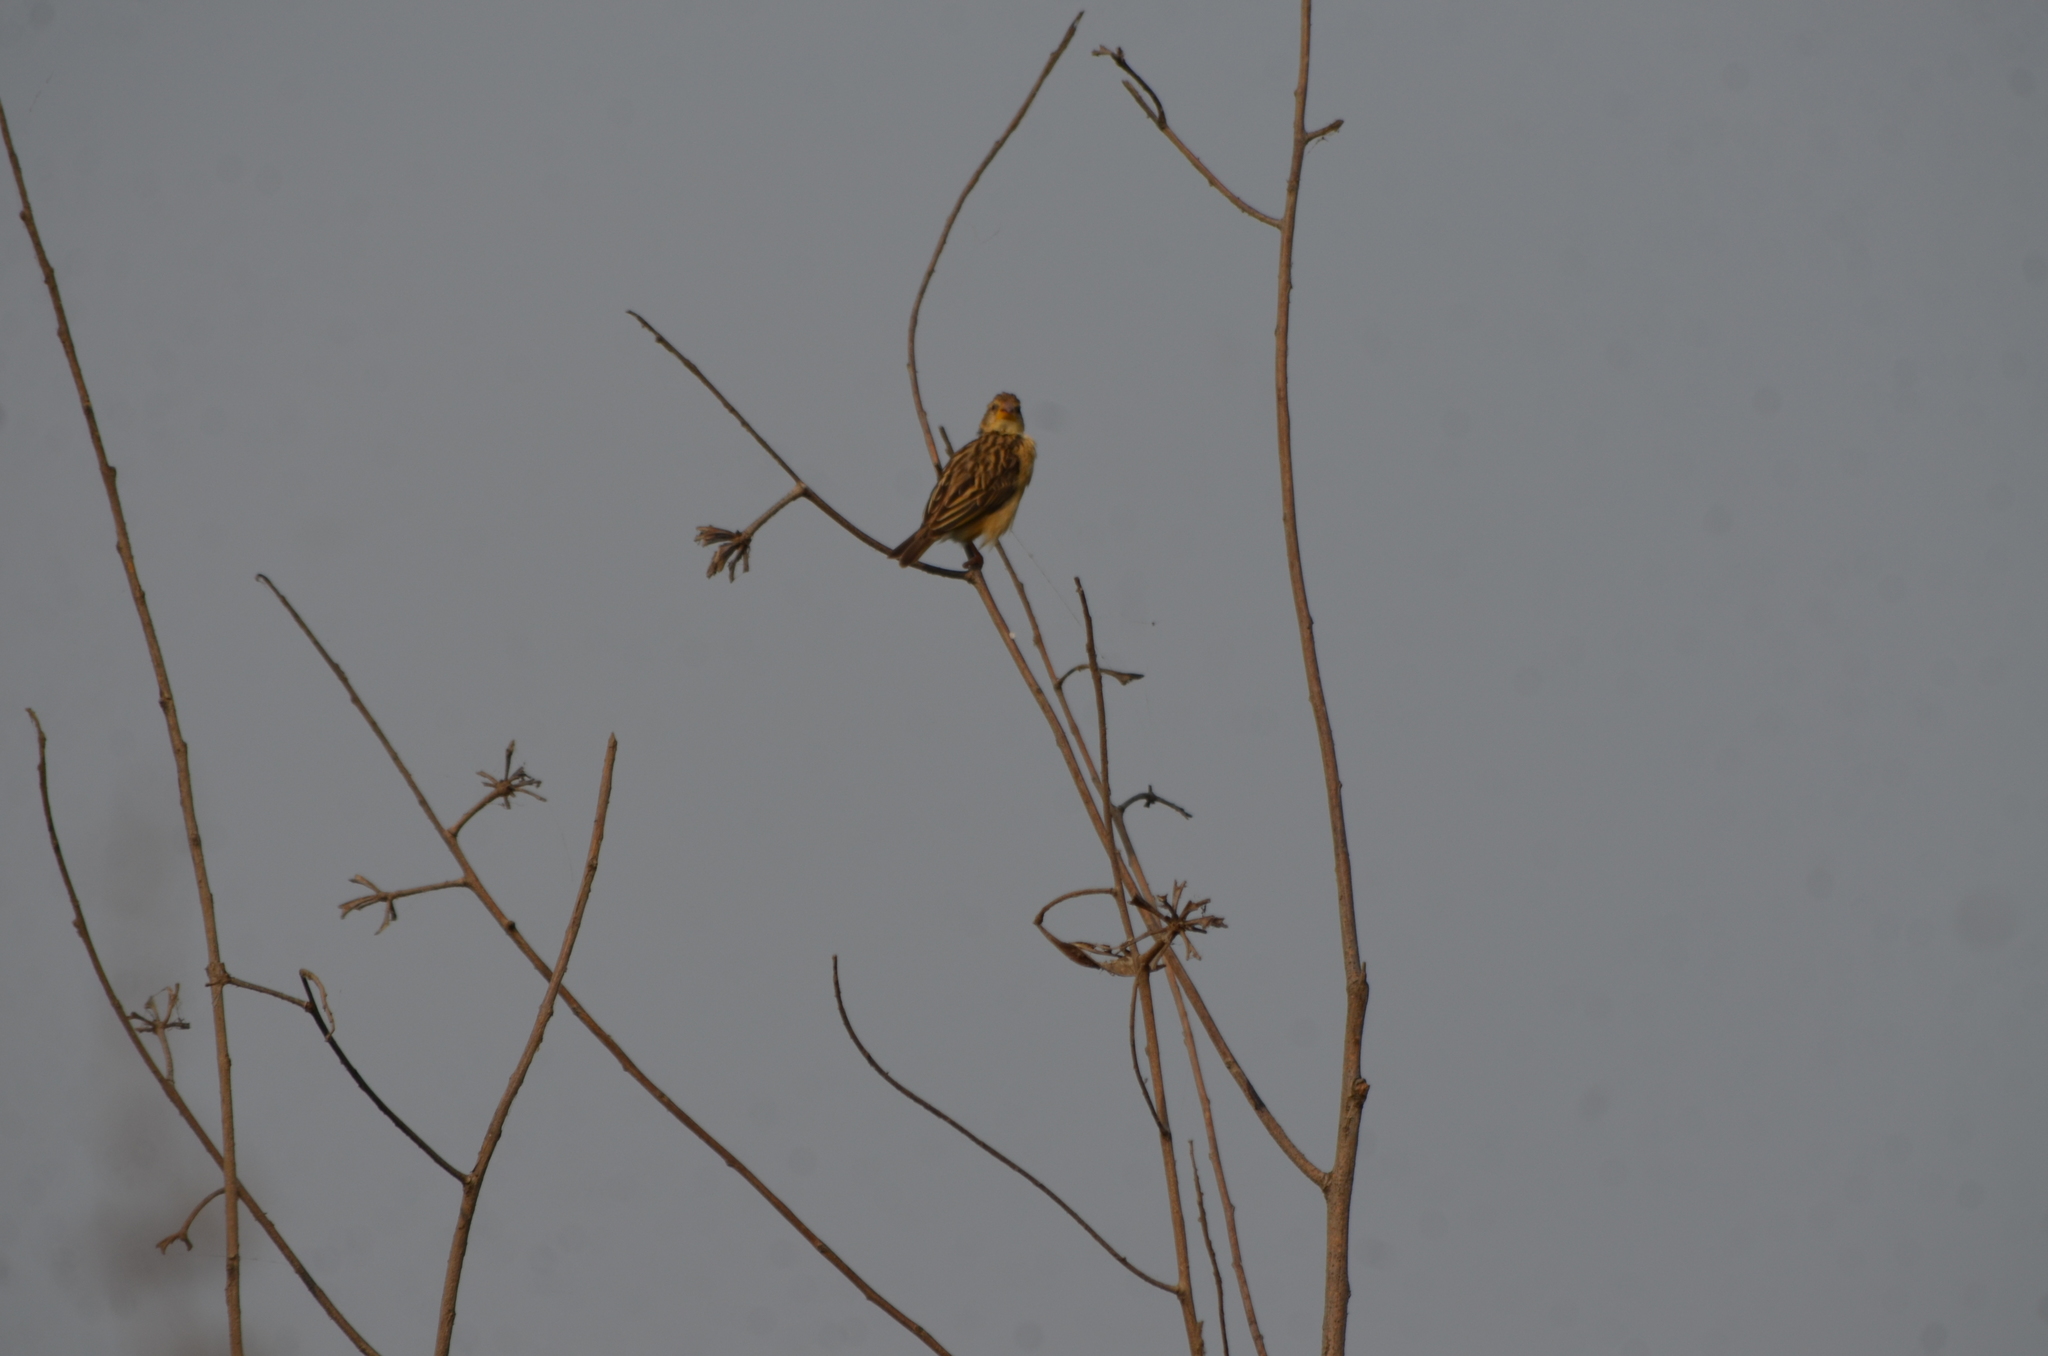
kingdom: Animalia
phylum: Chordata
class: Aves
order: Passeriformes
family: Ploceidae
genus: Ploceus
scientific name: Ploceus philippinus
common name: Baya weaver
